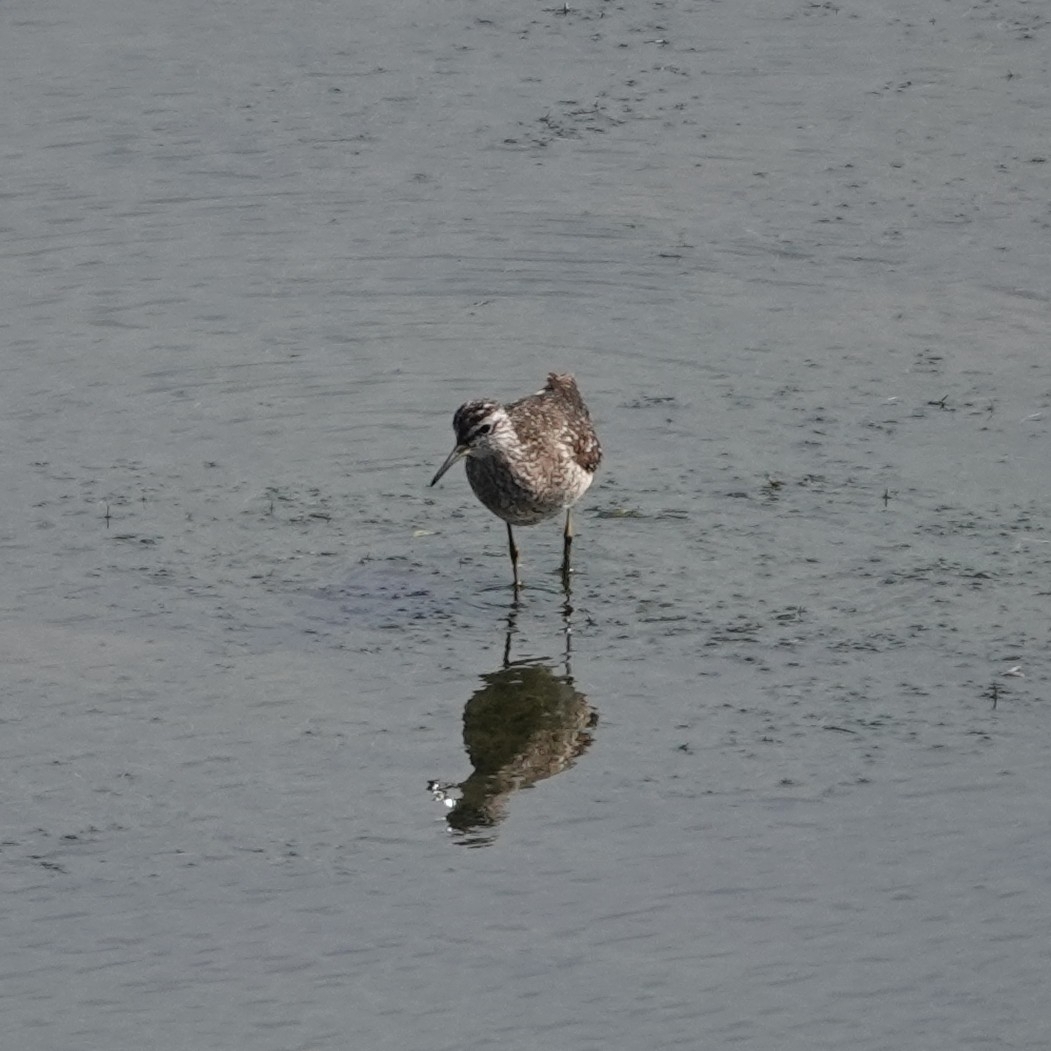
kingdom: Animalia
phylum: Chordata
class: Aves
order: Charadriiformes
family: Scolopacidae
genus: Tringa
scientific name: Tringa glareola
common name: Wood sandpiper
